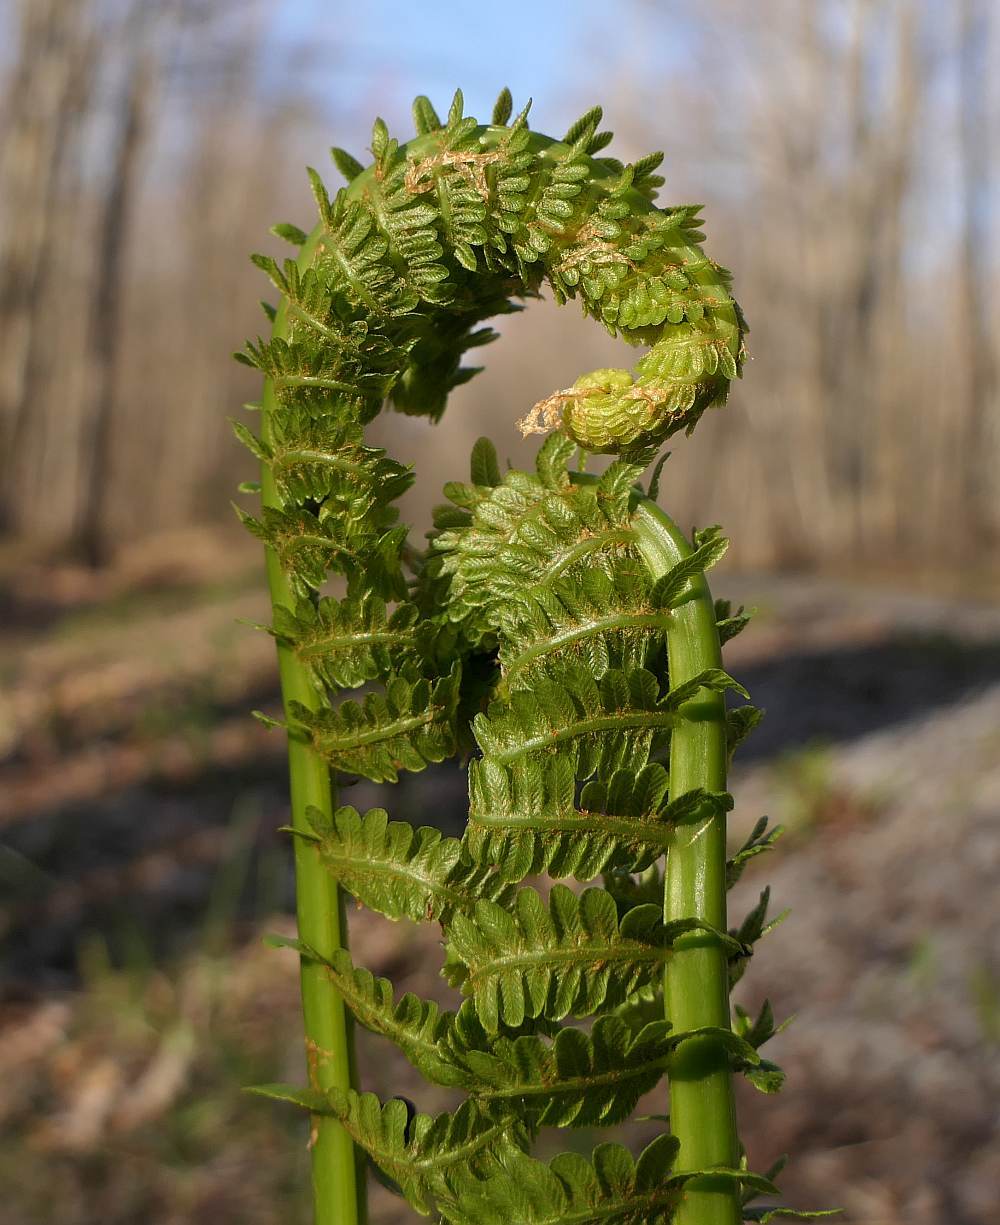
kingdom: Plantae
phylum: Tracheophyta
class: Polypodiopsida
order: Polypodiales
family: Onocleaceae
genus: Matteuccia
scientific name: Matteuccia struthiopteris
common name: Ostrich fern
